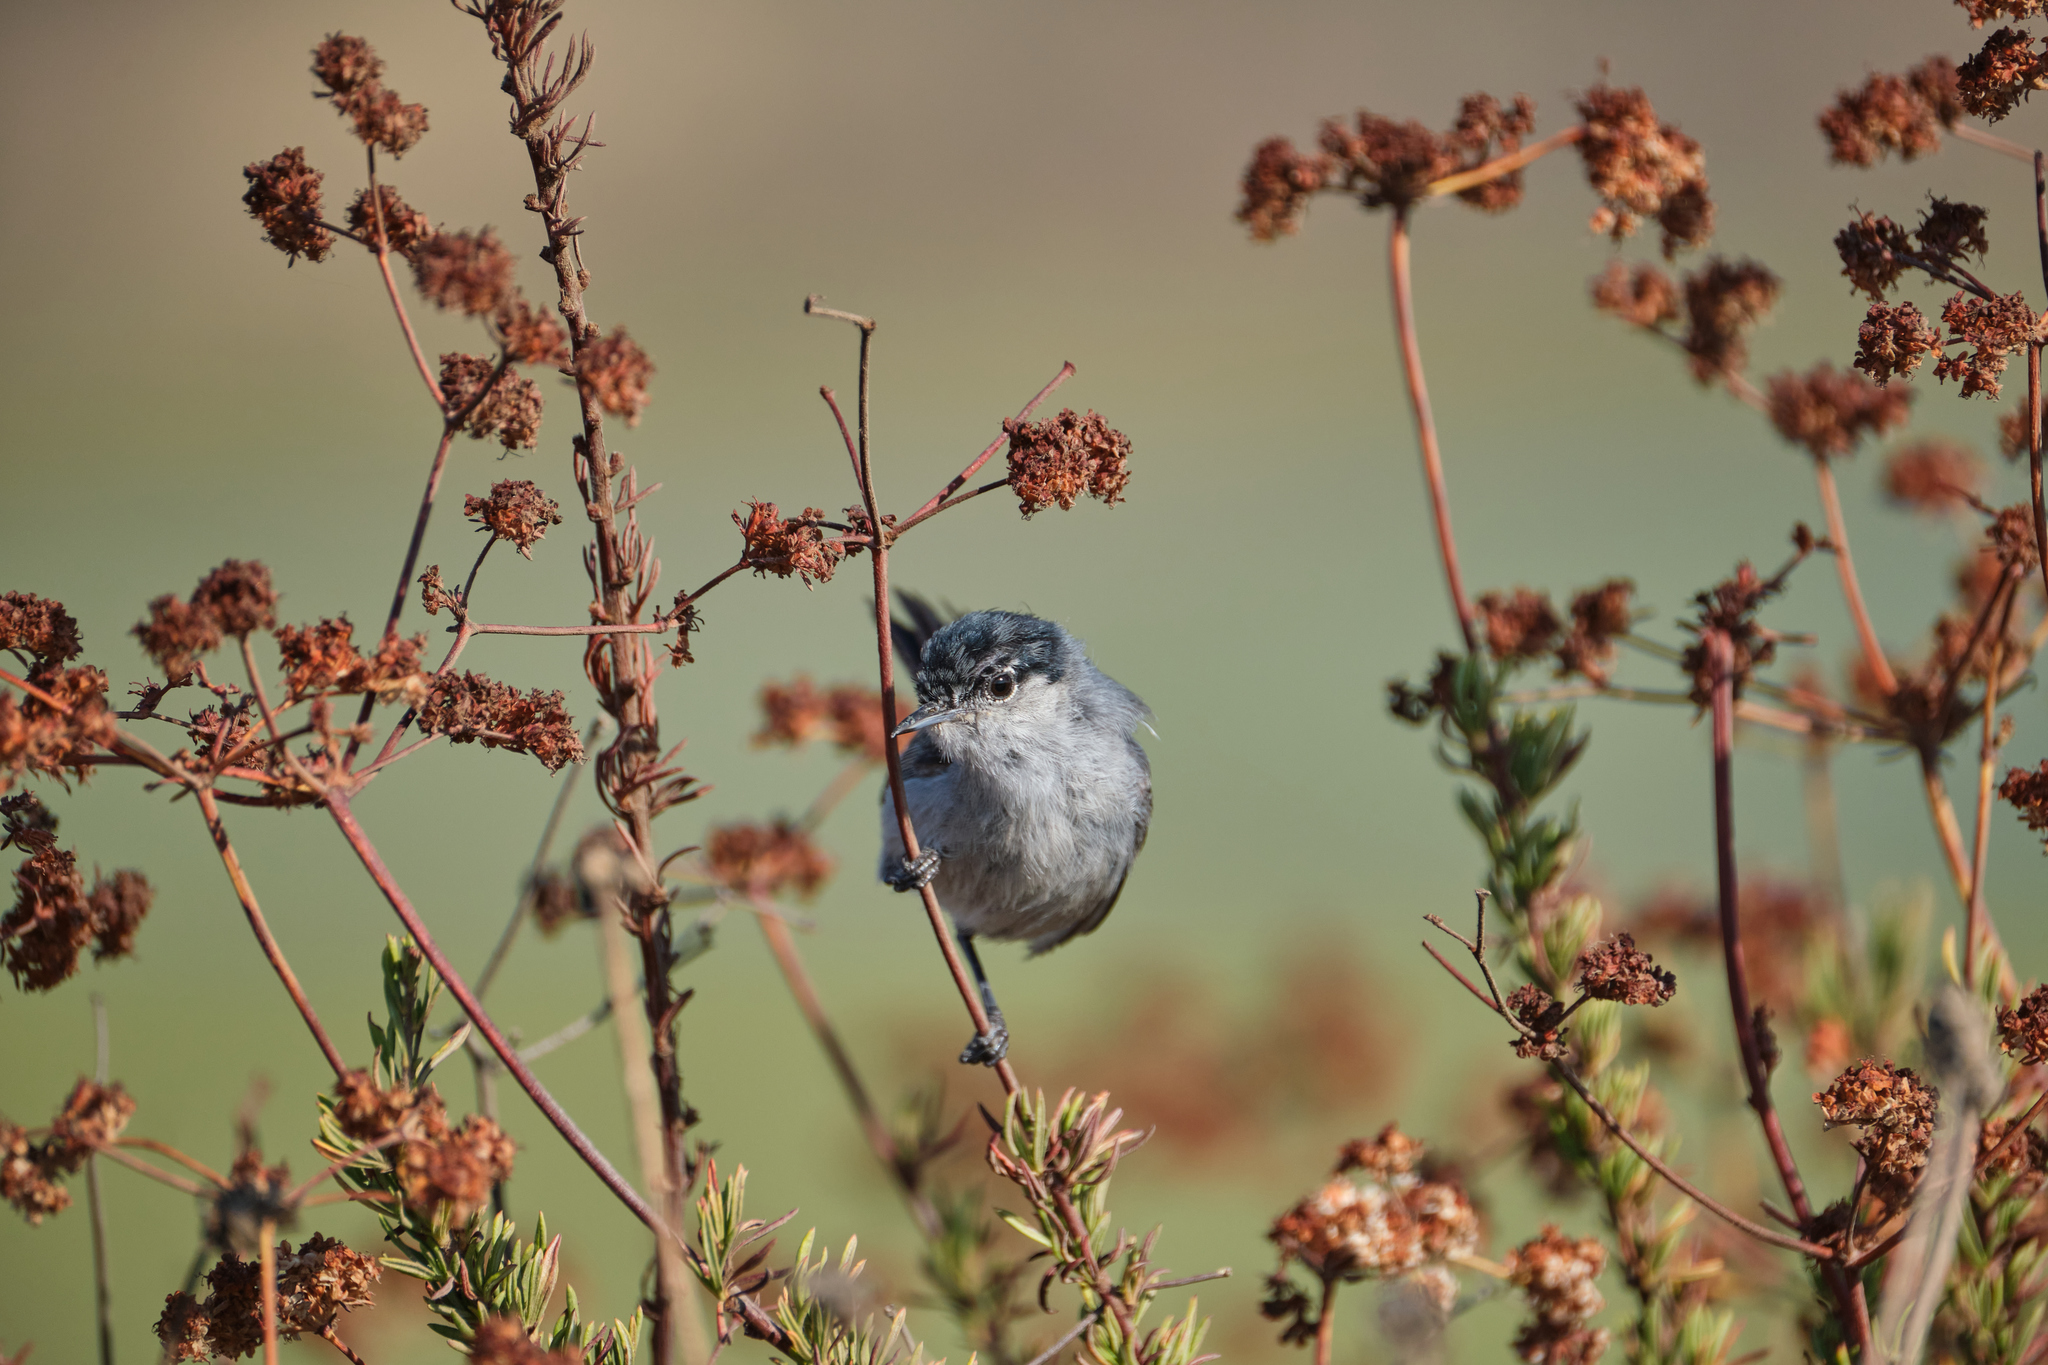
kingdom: Animalia
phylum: Chordata
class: Aves
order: Passeriformes
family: Polioptilidae
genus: Polioptila
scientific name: Polioptila californica
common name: California gnatcatcher
